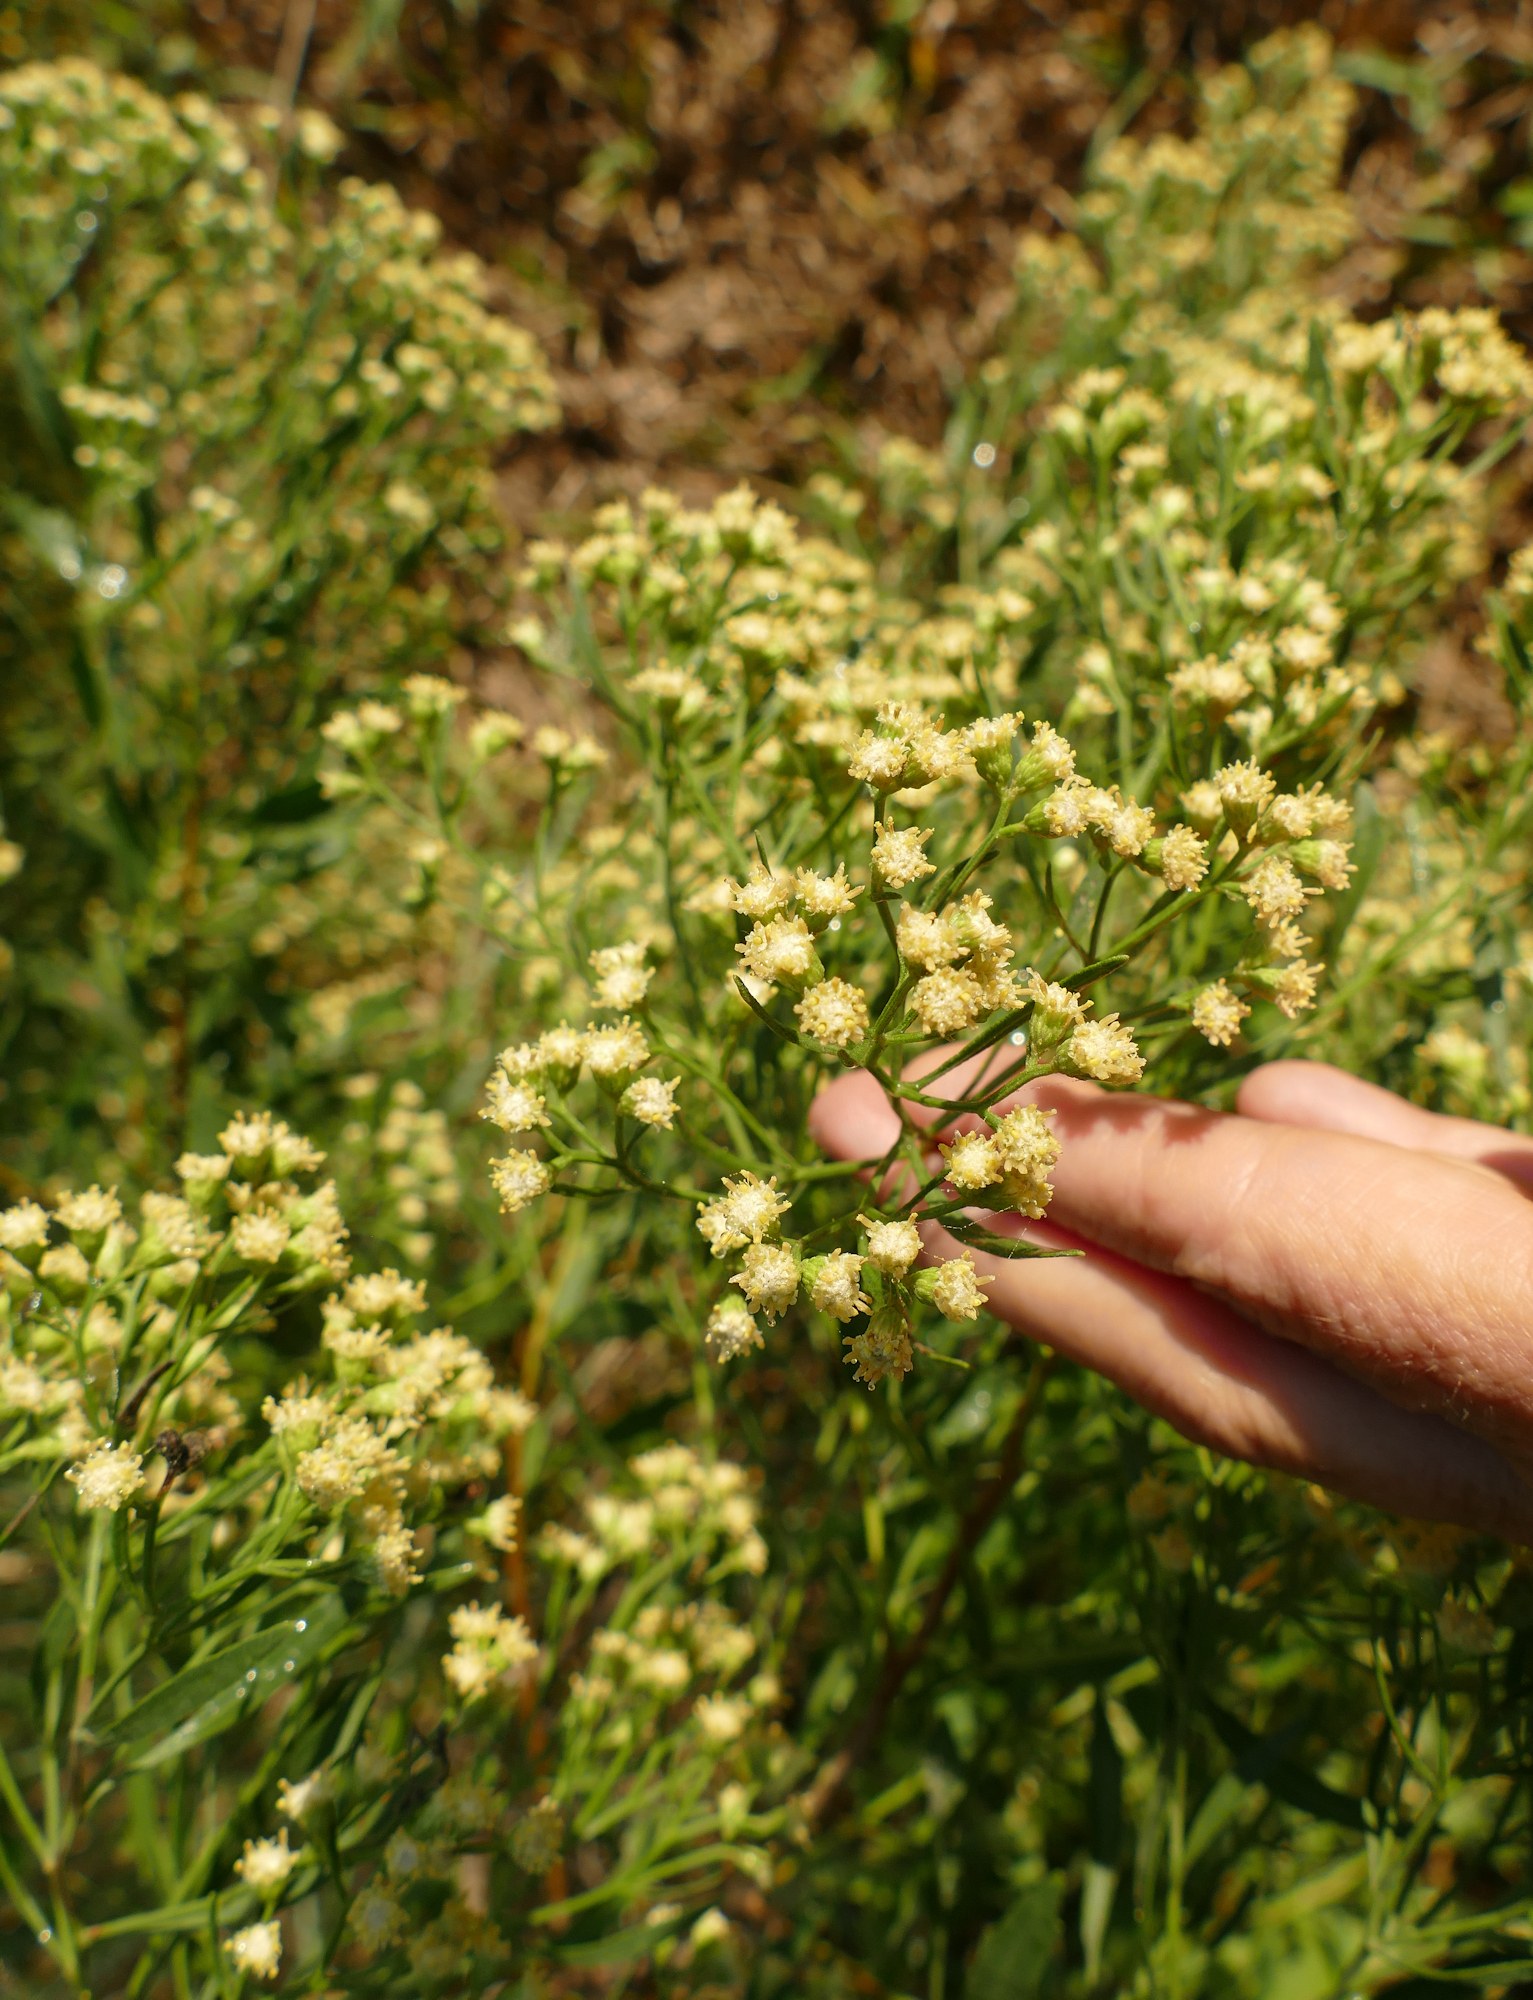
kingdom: Plantae
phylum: Tracheophyta
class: Magnoliopsida
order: Asterales
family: Asteraceae
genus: Baccharis
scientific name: Baccharis halimifolia
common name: Eastern baccharis
